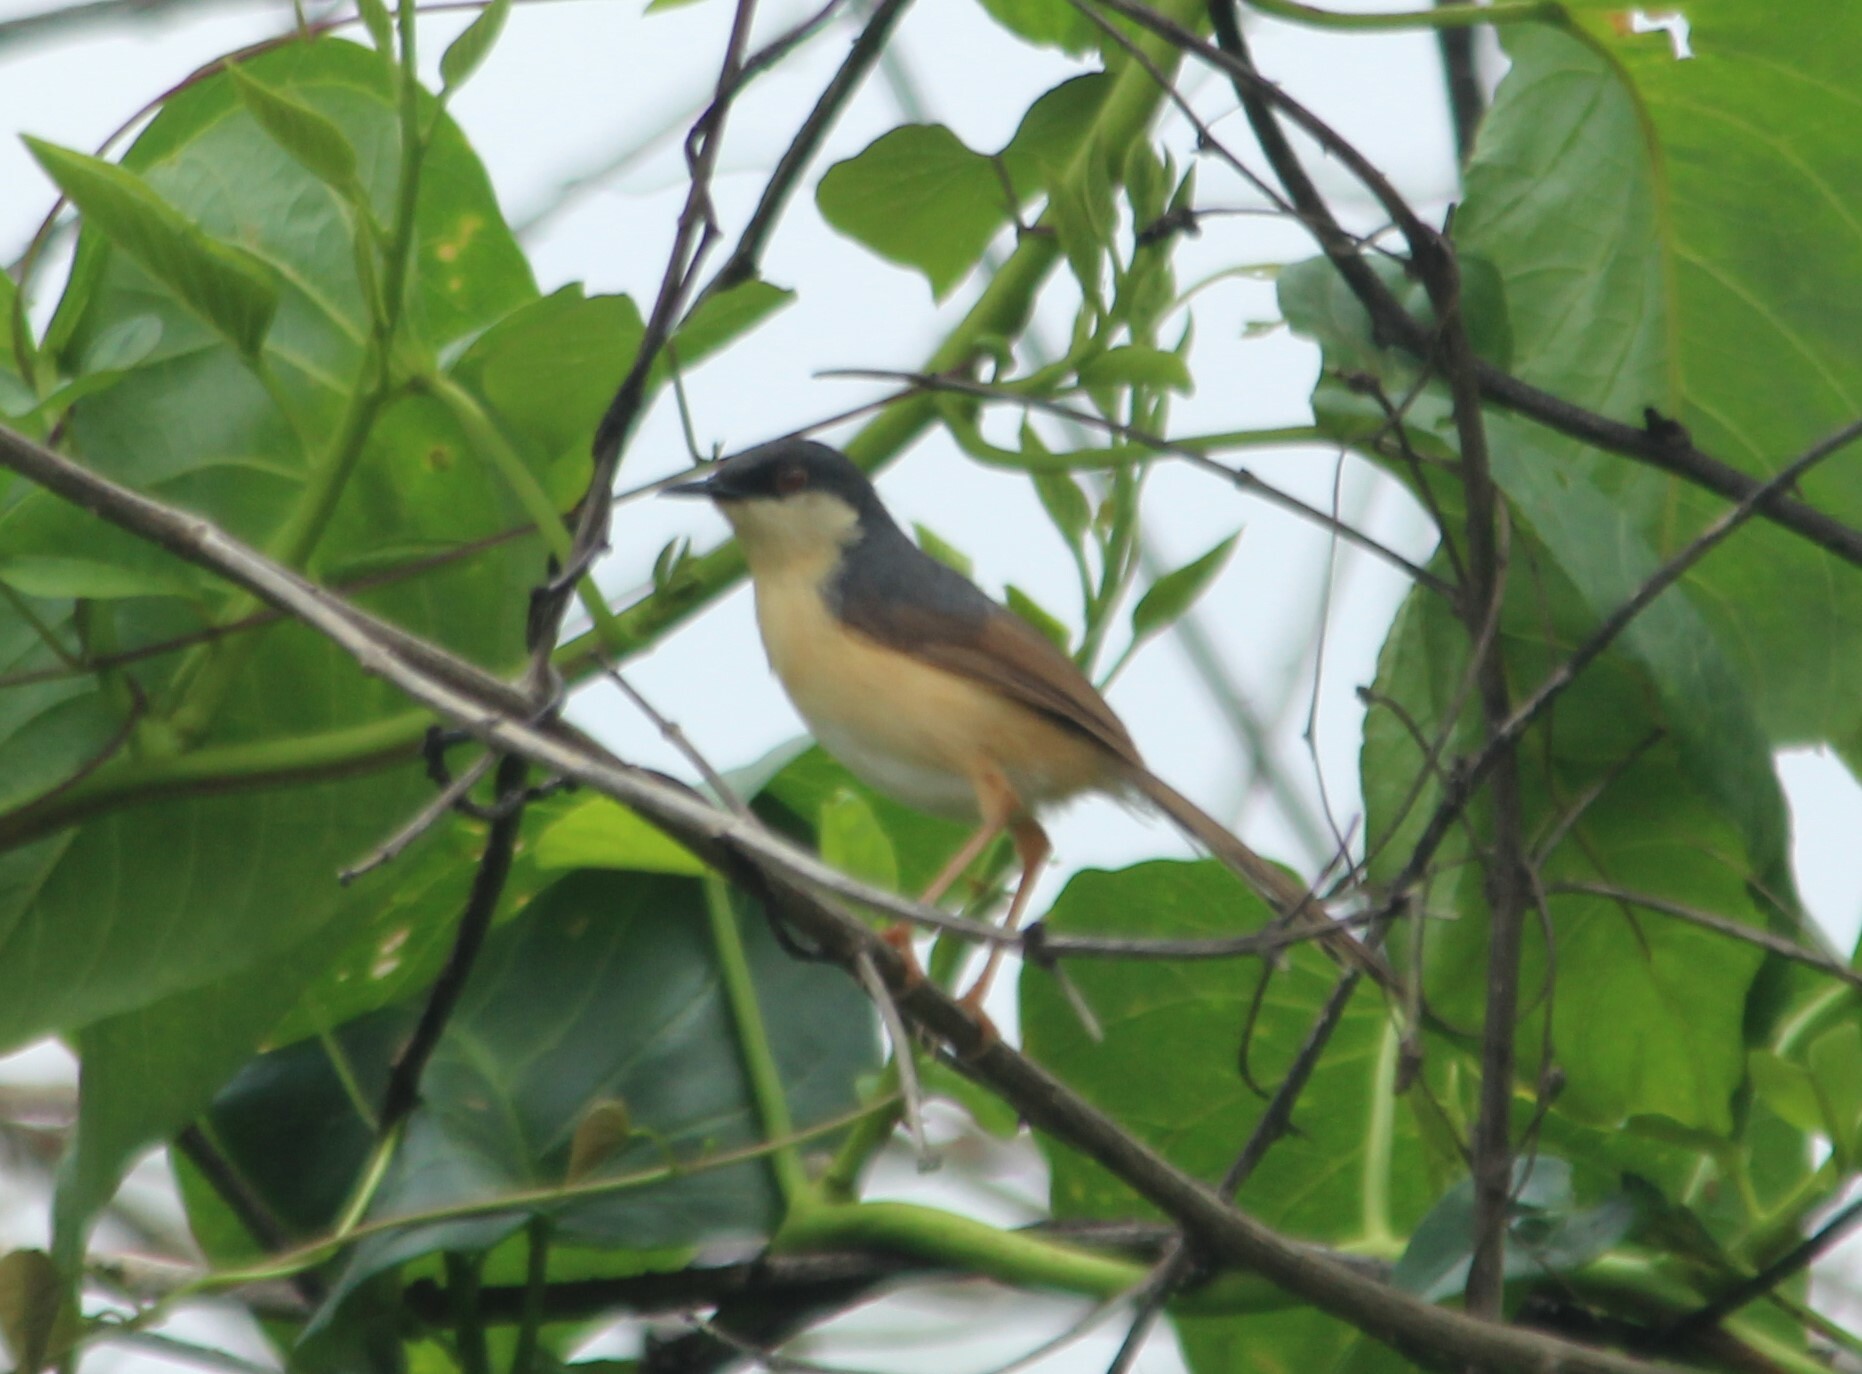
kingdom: Animalia
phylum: Chordata
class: Aves
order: Passeriformes
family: Cisticolidae
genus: Prinia
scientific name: Prinia socialis
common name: Ashy prinia
